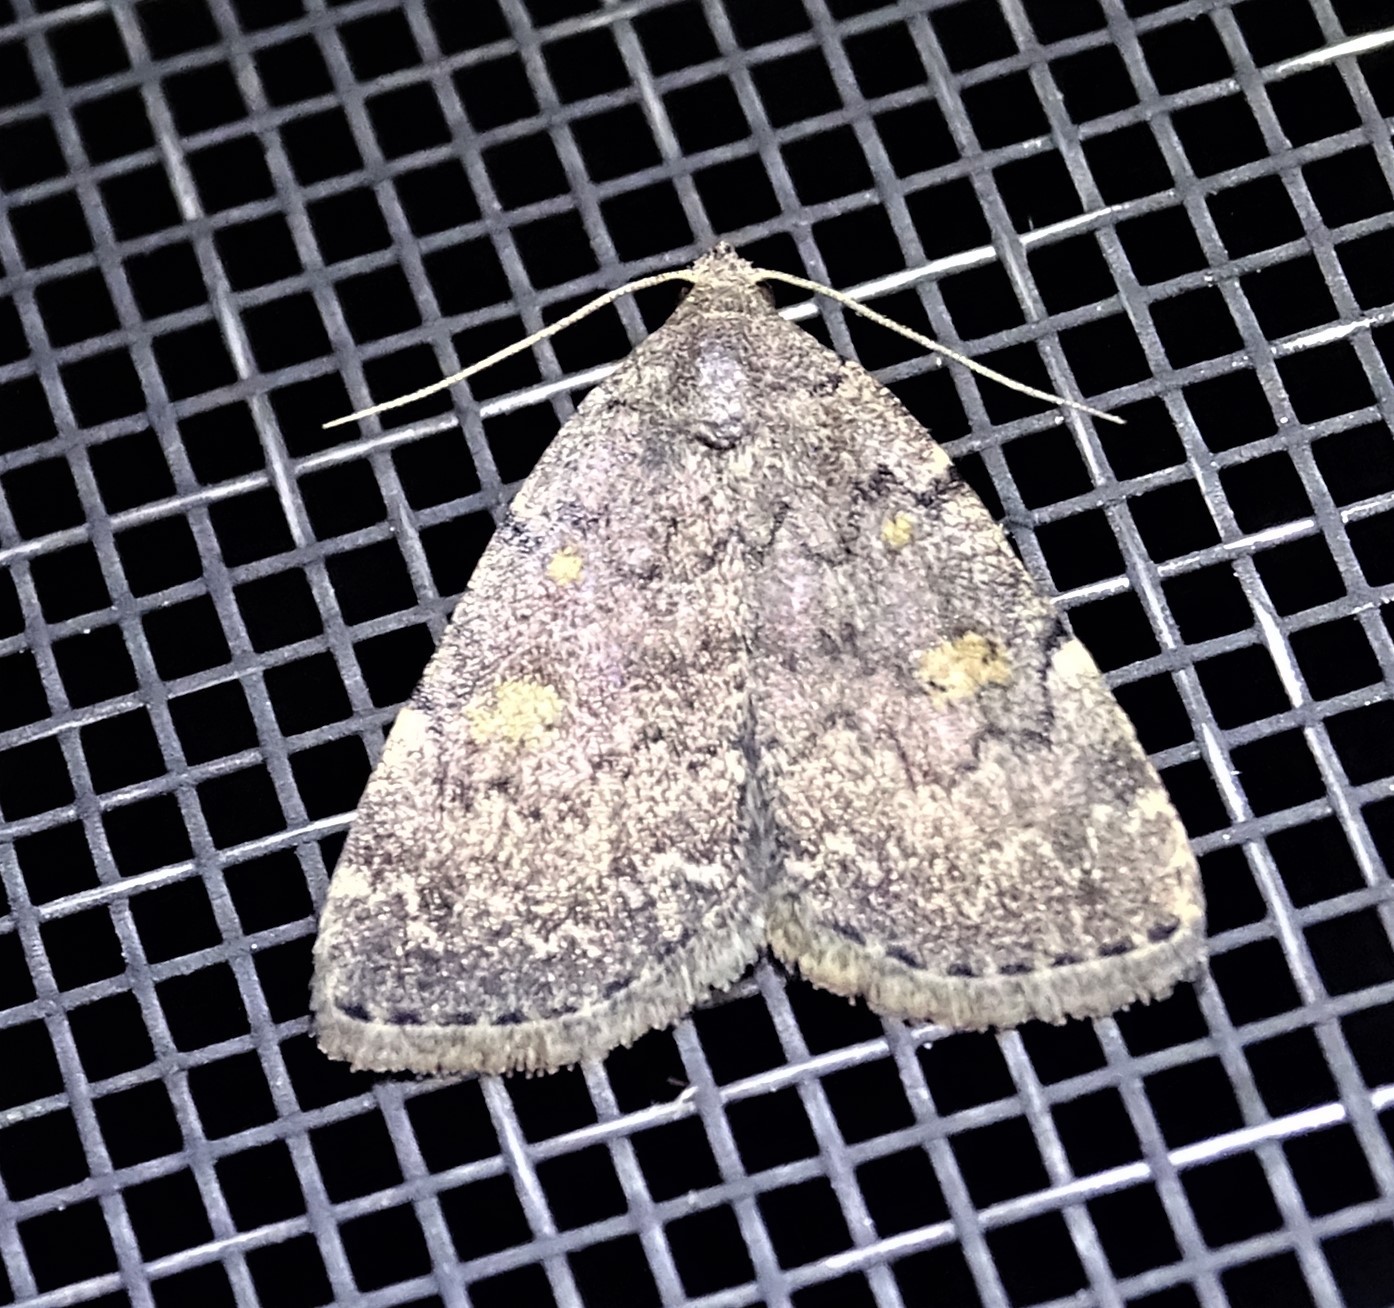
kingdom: Animalia
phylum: Arthropoda
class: Insecta
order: Lepidoptera
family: Erebidae
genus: Idia
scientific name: Idia aemula
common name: Common idia moth
